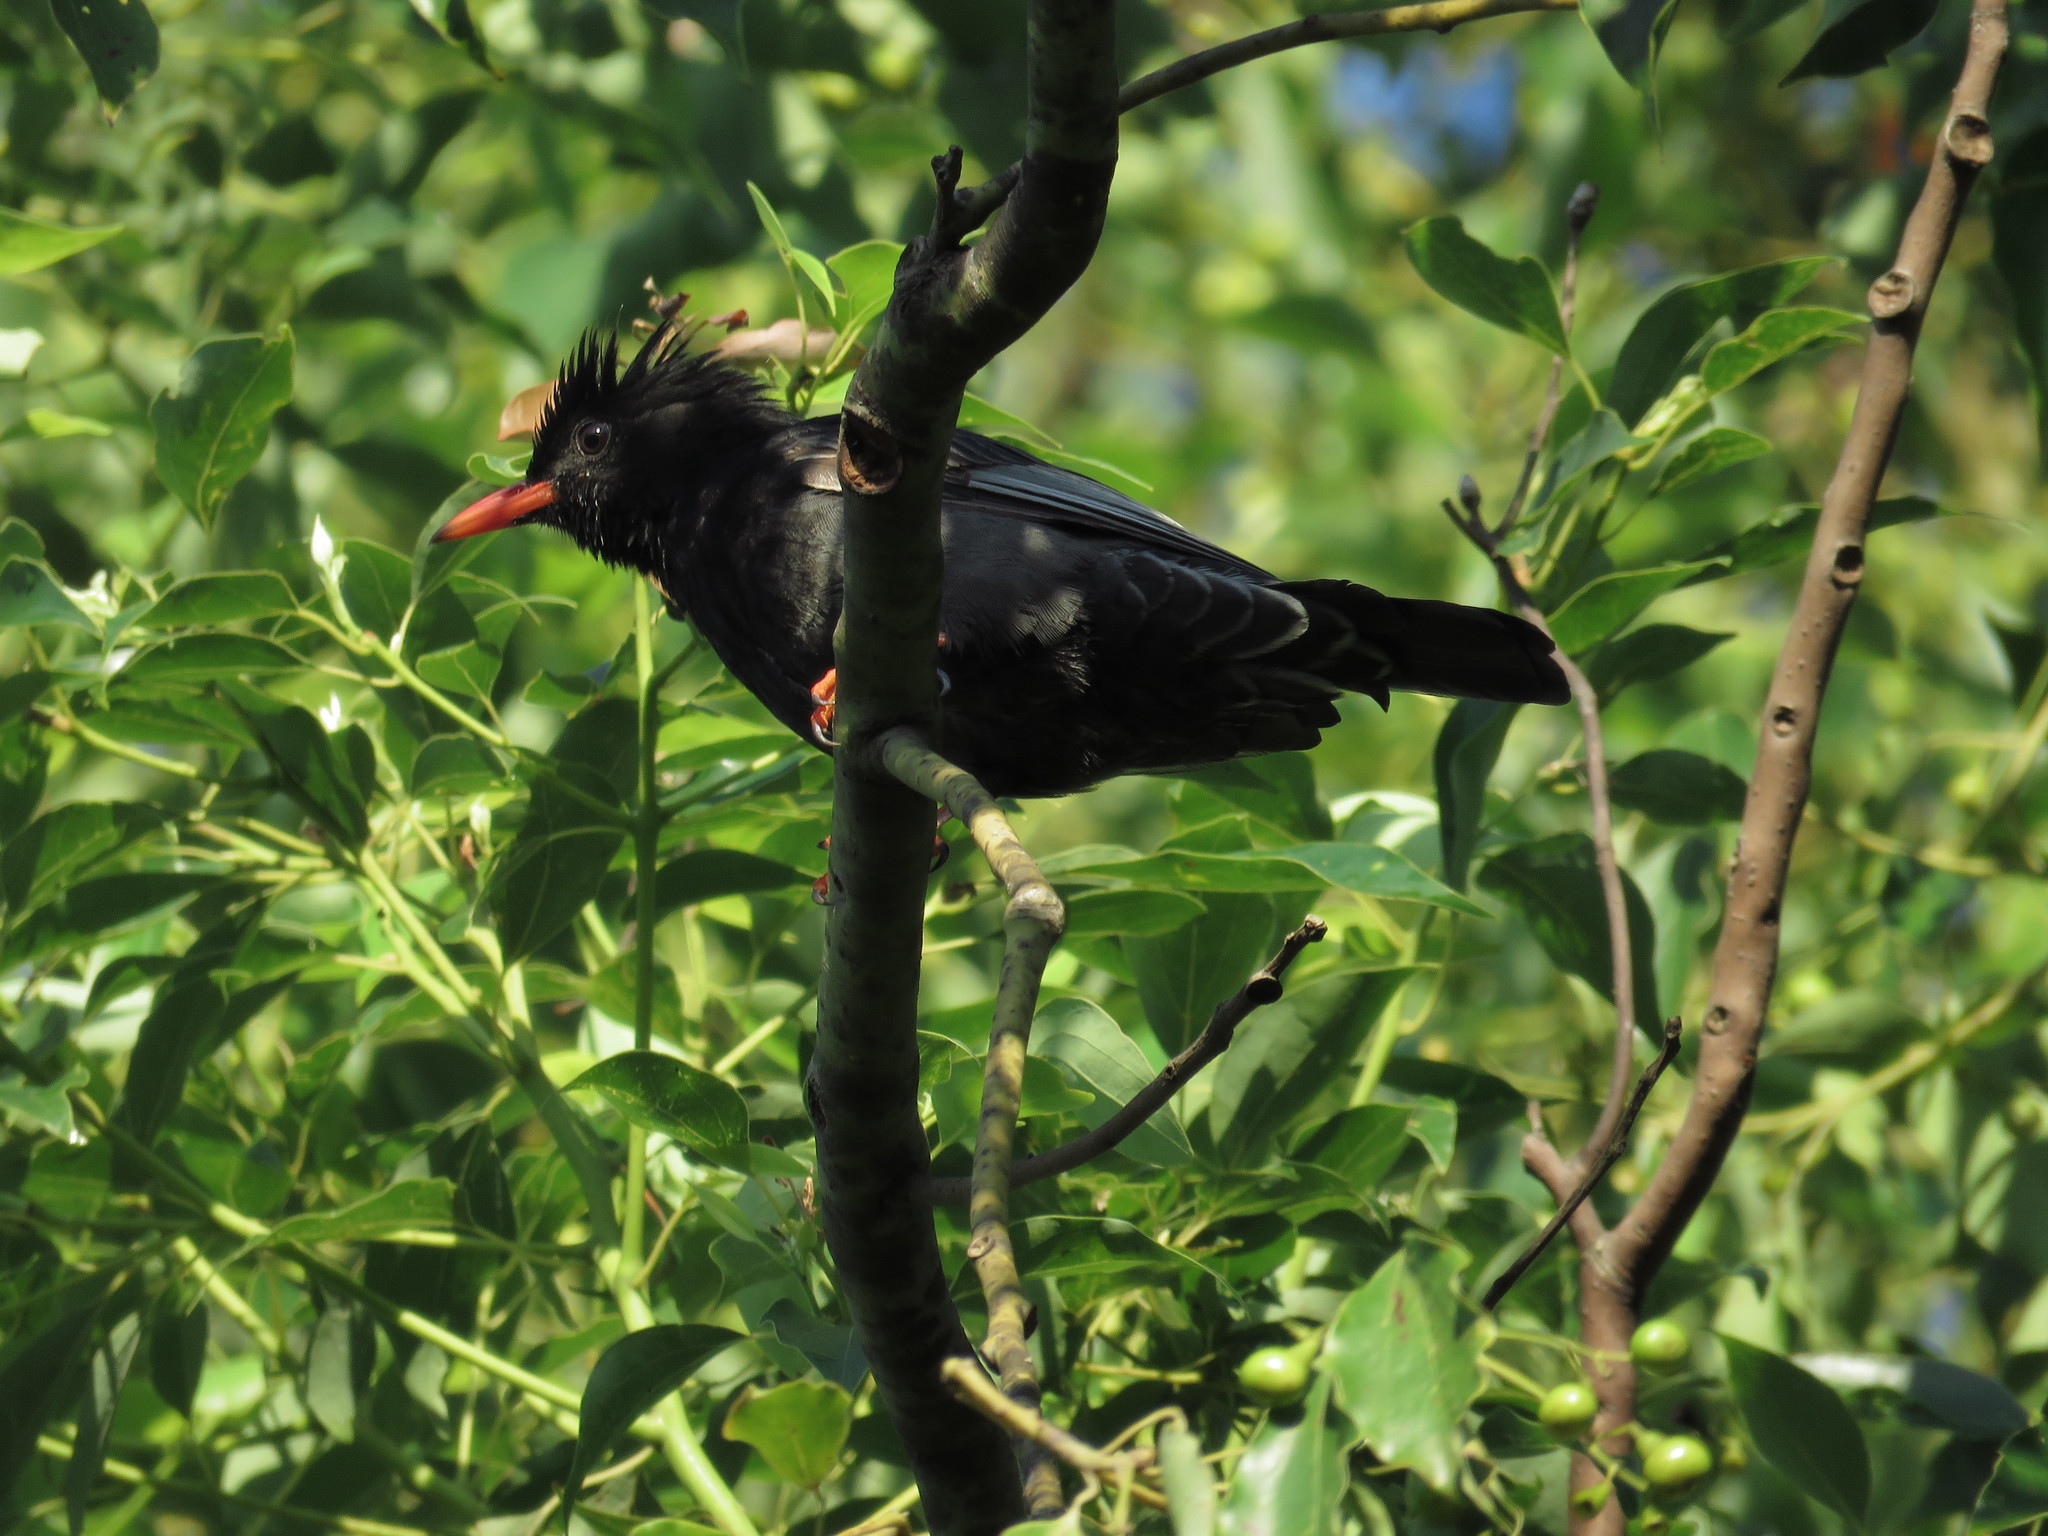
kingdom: Animalia
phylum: Chordata
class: Aves
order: Passeriformes
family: Pycnonotidae
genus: Hypsipetes
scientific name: Hypsipetes leucocephalus
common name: Black bulbul
